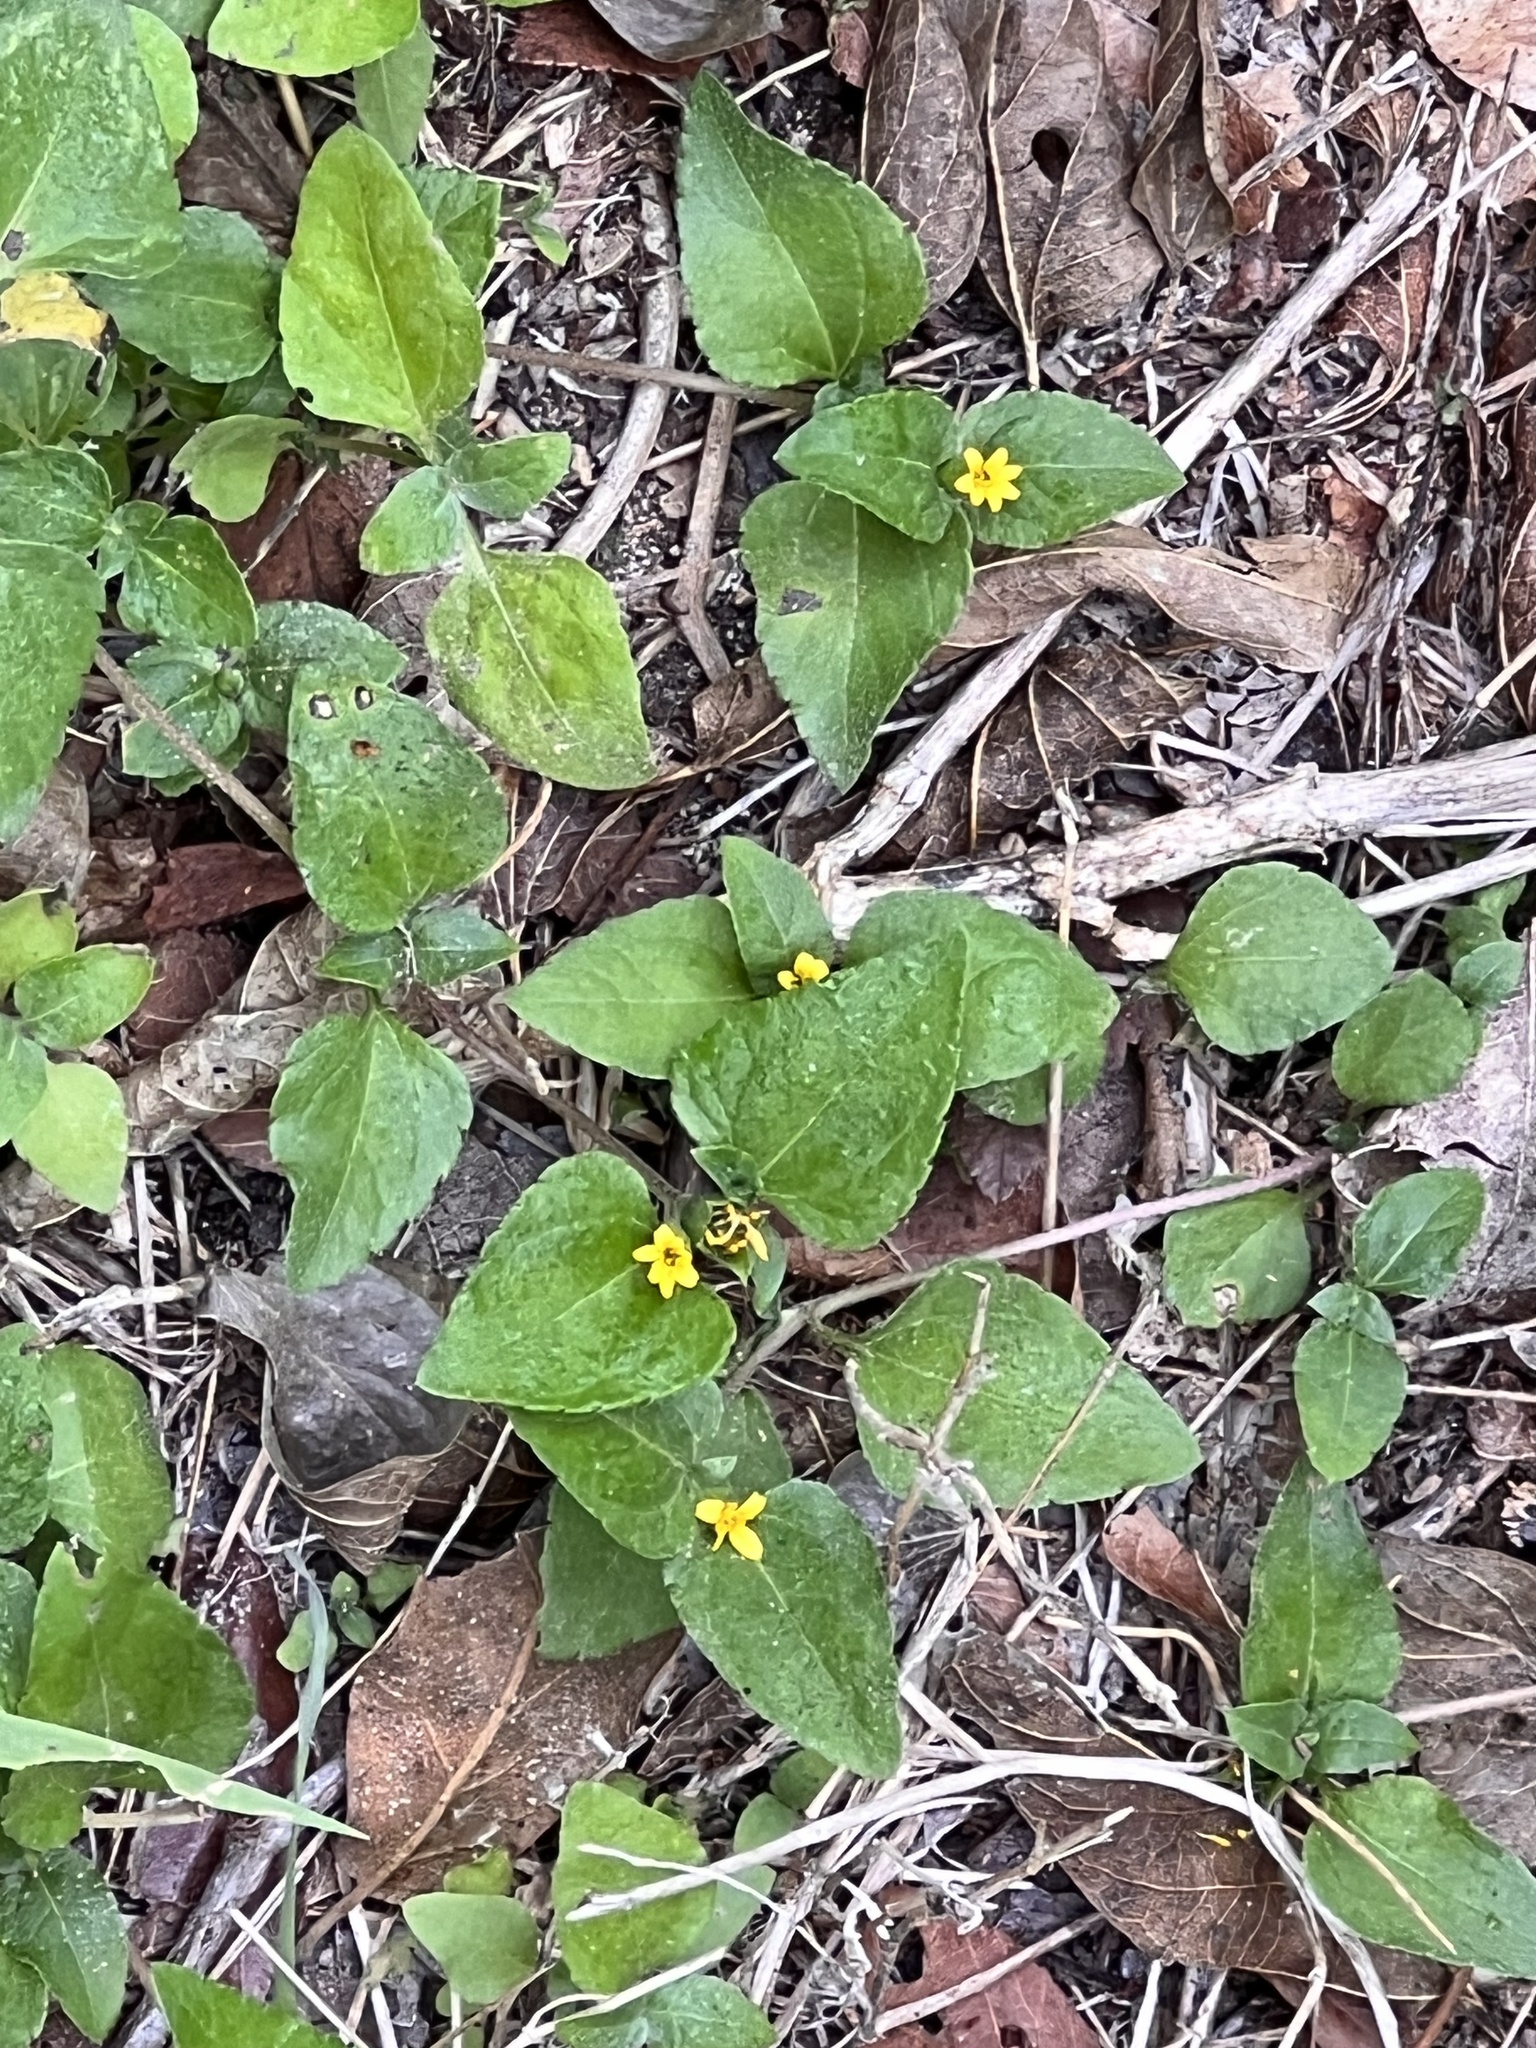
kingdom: Plantae
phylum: Tracheophyta
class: Magnoliopsida
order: Asterales
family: Asteraceae
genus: Calyptocarpus
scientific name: Calyptocarpus vialis
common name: Straggler daisy
